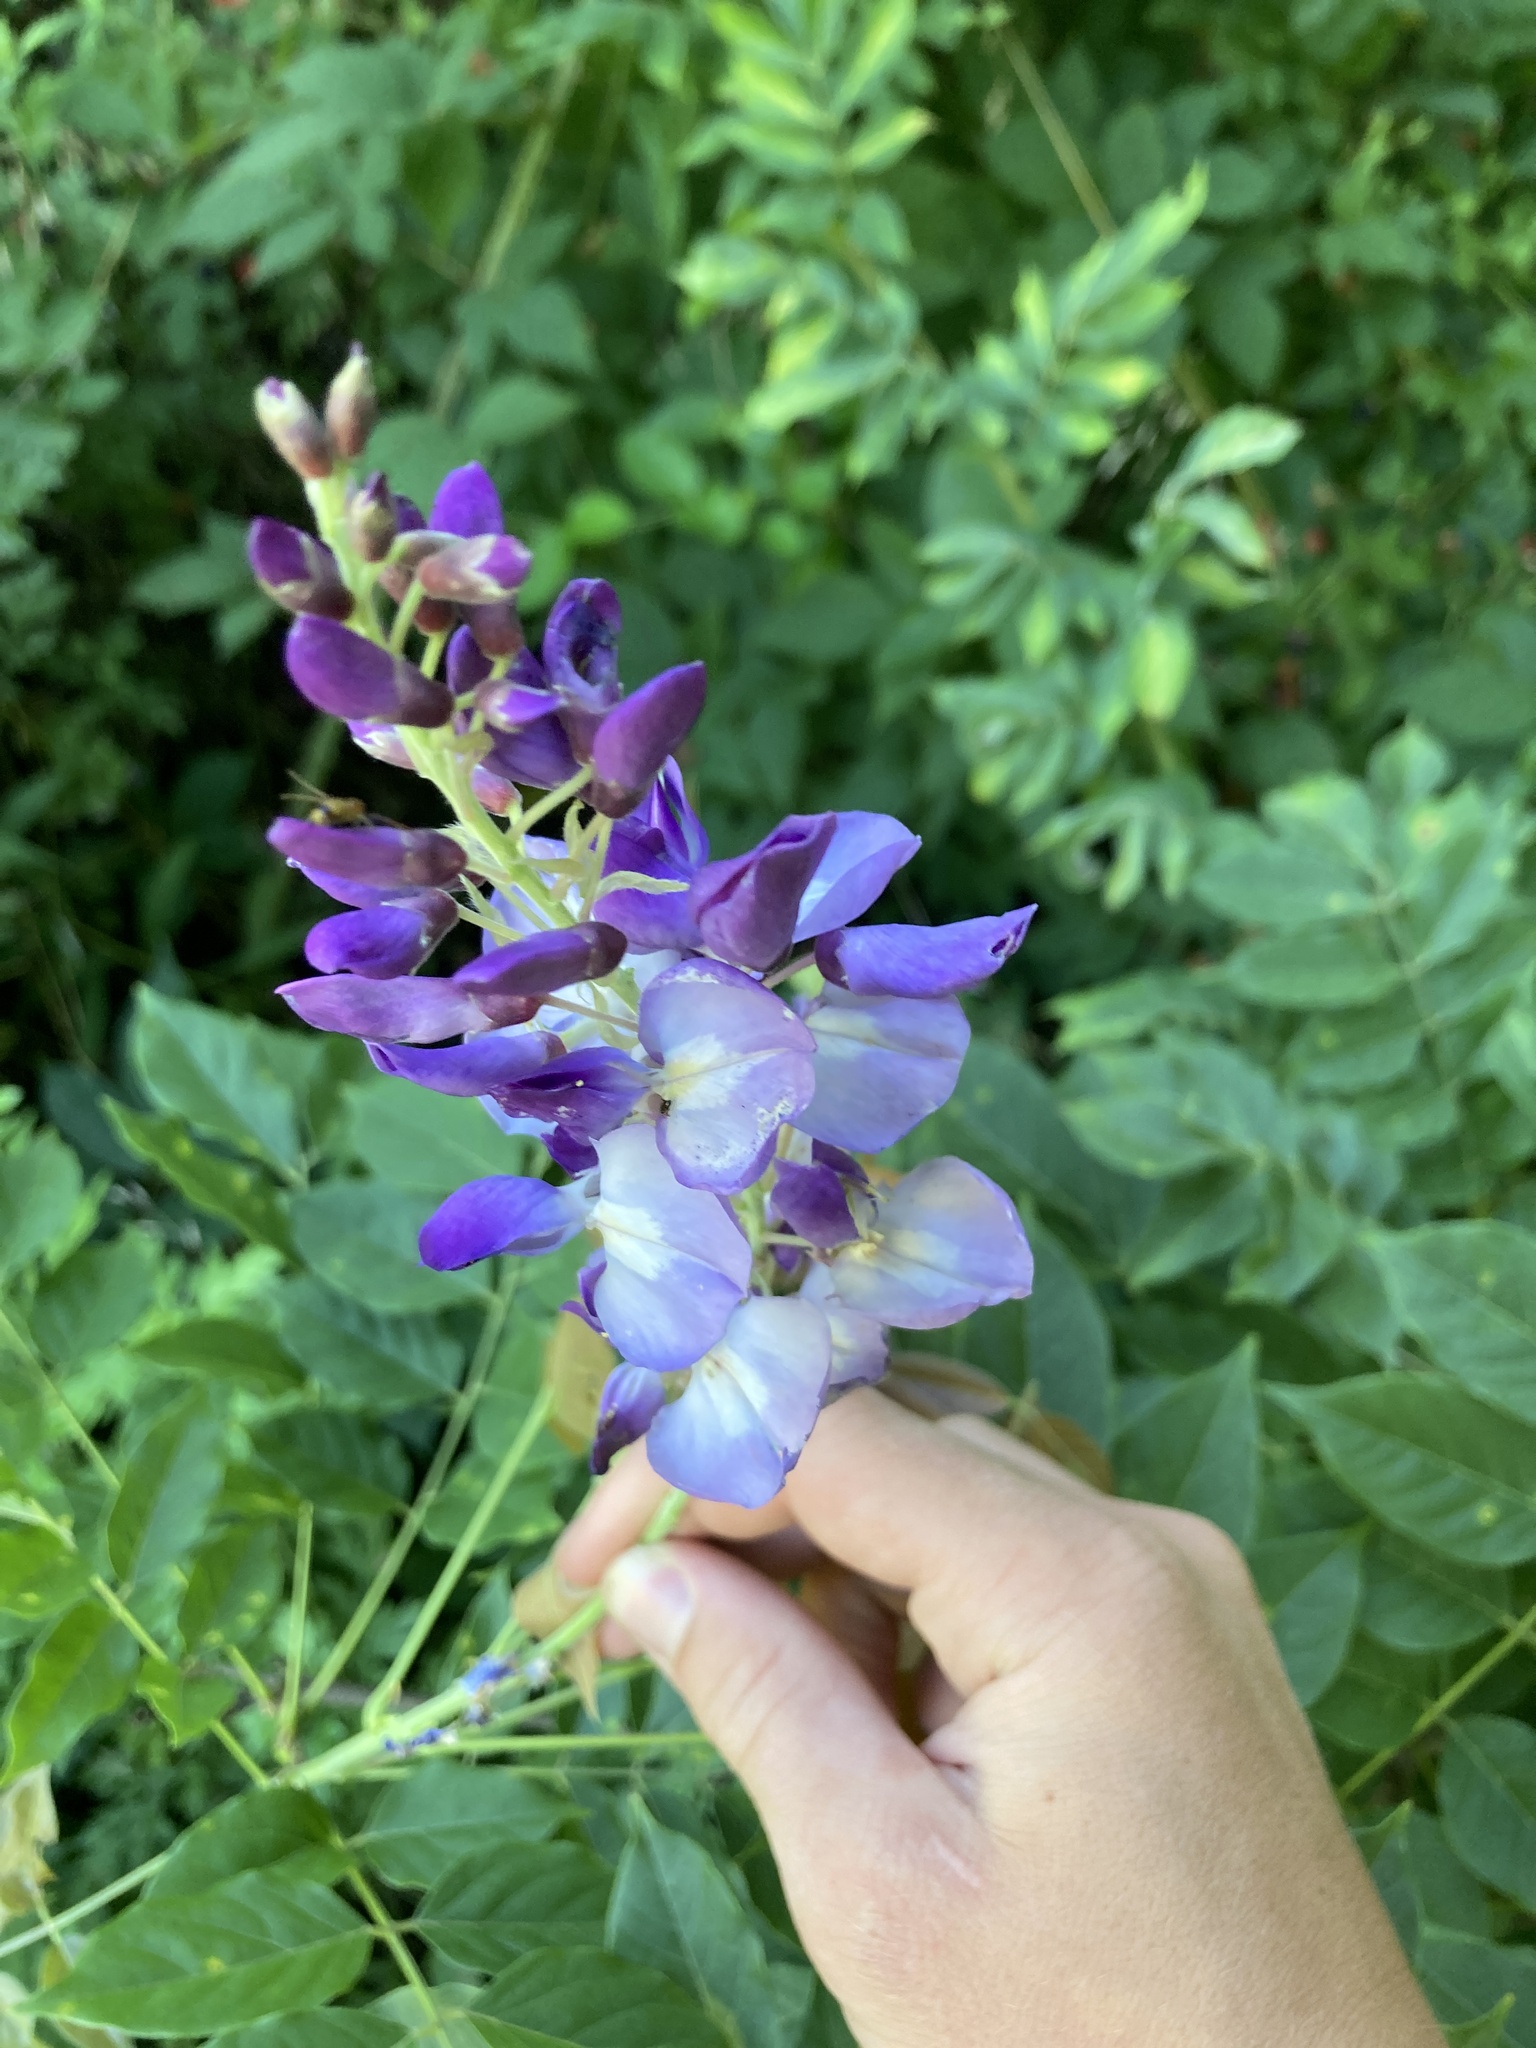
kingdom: Plantae
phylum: Tracheophyta
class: Magnoliopsida
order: Fabales
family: Fabaceae
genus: Wisteria
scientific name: Wisteria sinensis
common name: Chinese wisteria
